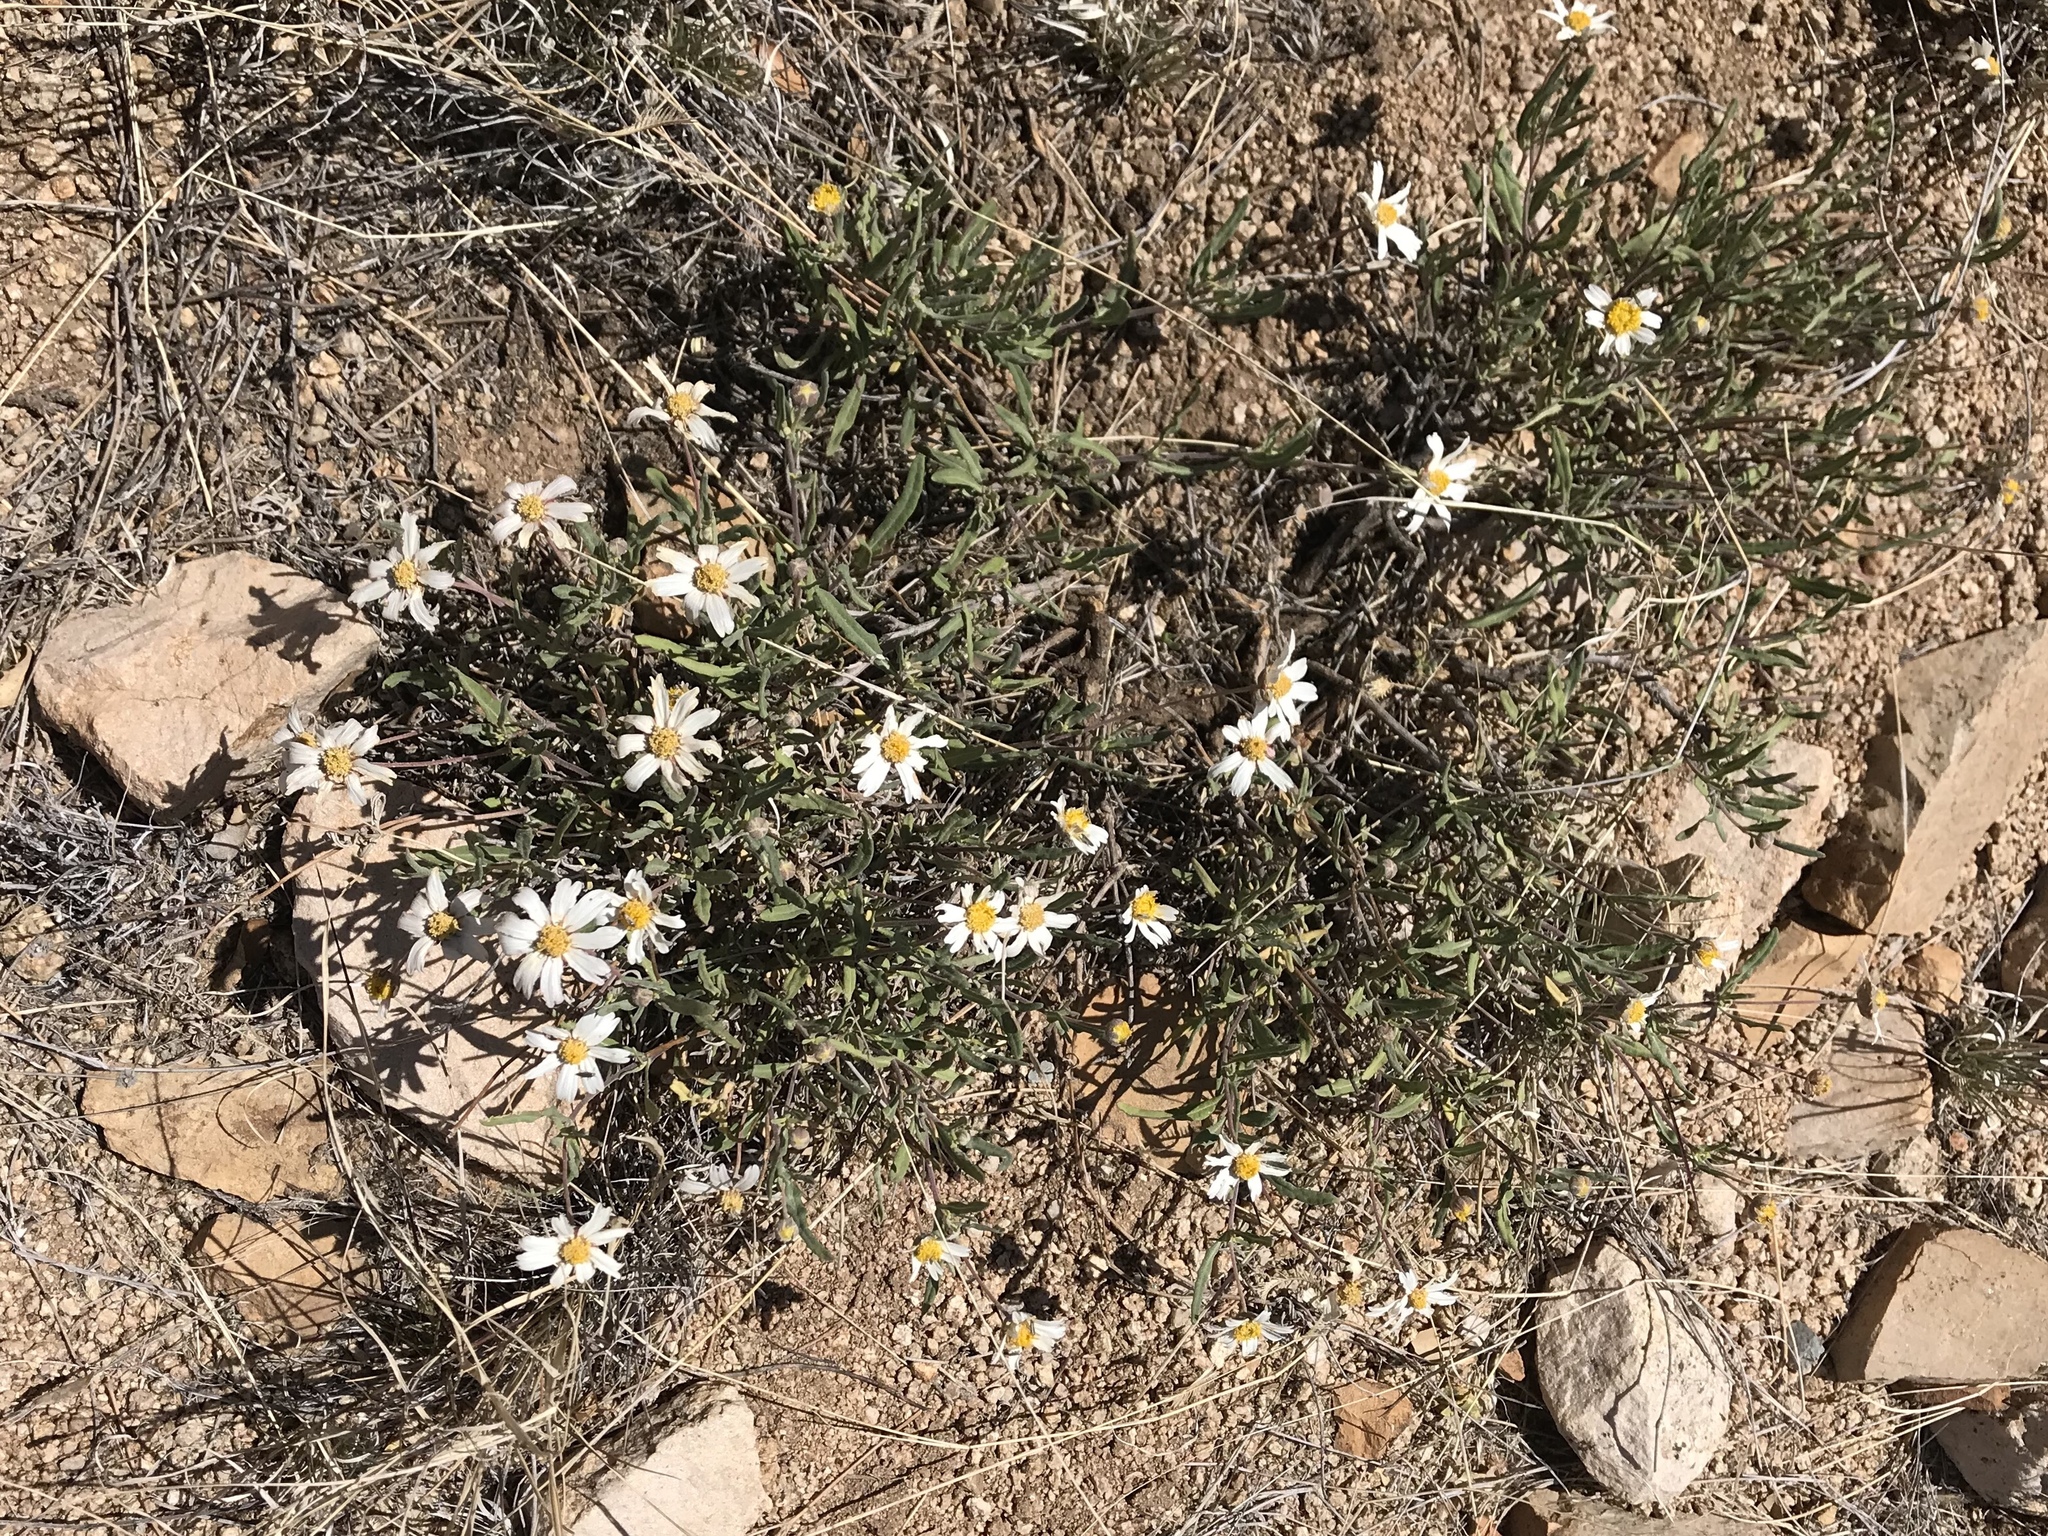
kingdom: Plantae
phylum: Tracheophyta
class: Magnoliopsida
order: Asterales
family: Asteraceae
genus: Melampodium
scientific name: Melampodium leucanthum
